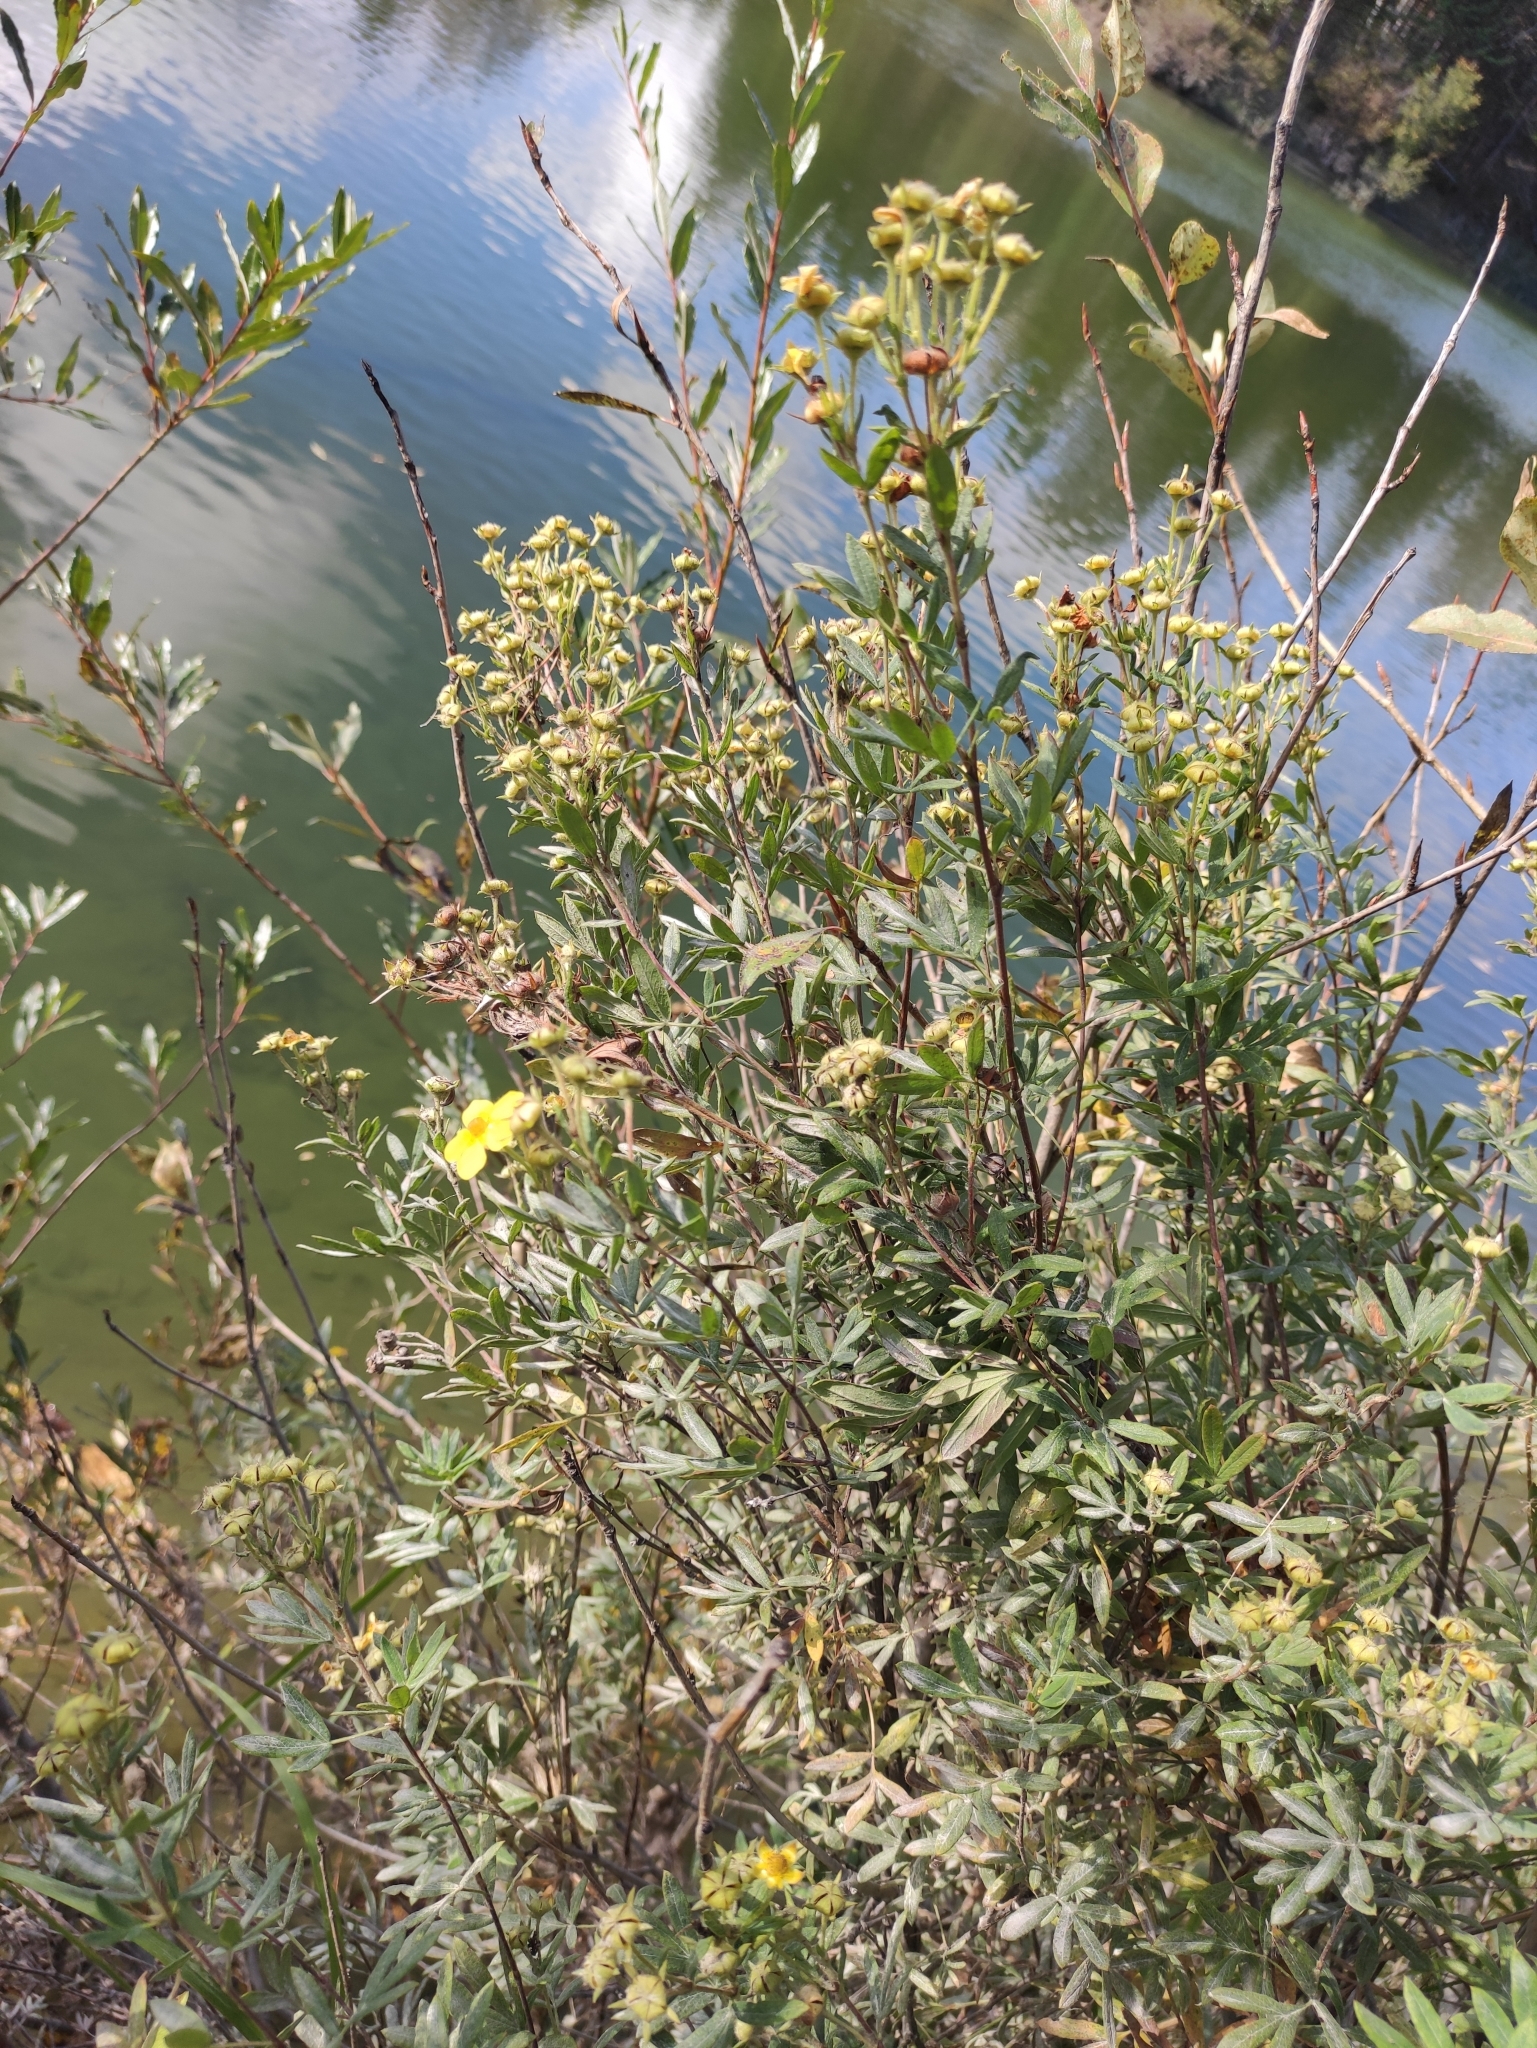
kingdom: Plantae
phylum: Tracheophyta
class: Magnoliopsida
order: Rosales
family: Rosaceae
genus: Dasiphora
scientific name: Dasiphora fruticosa
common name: Shrubby cinquefoil
